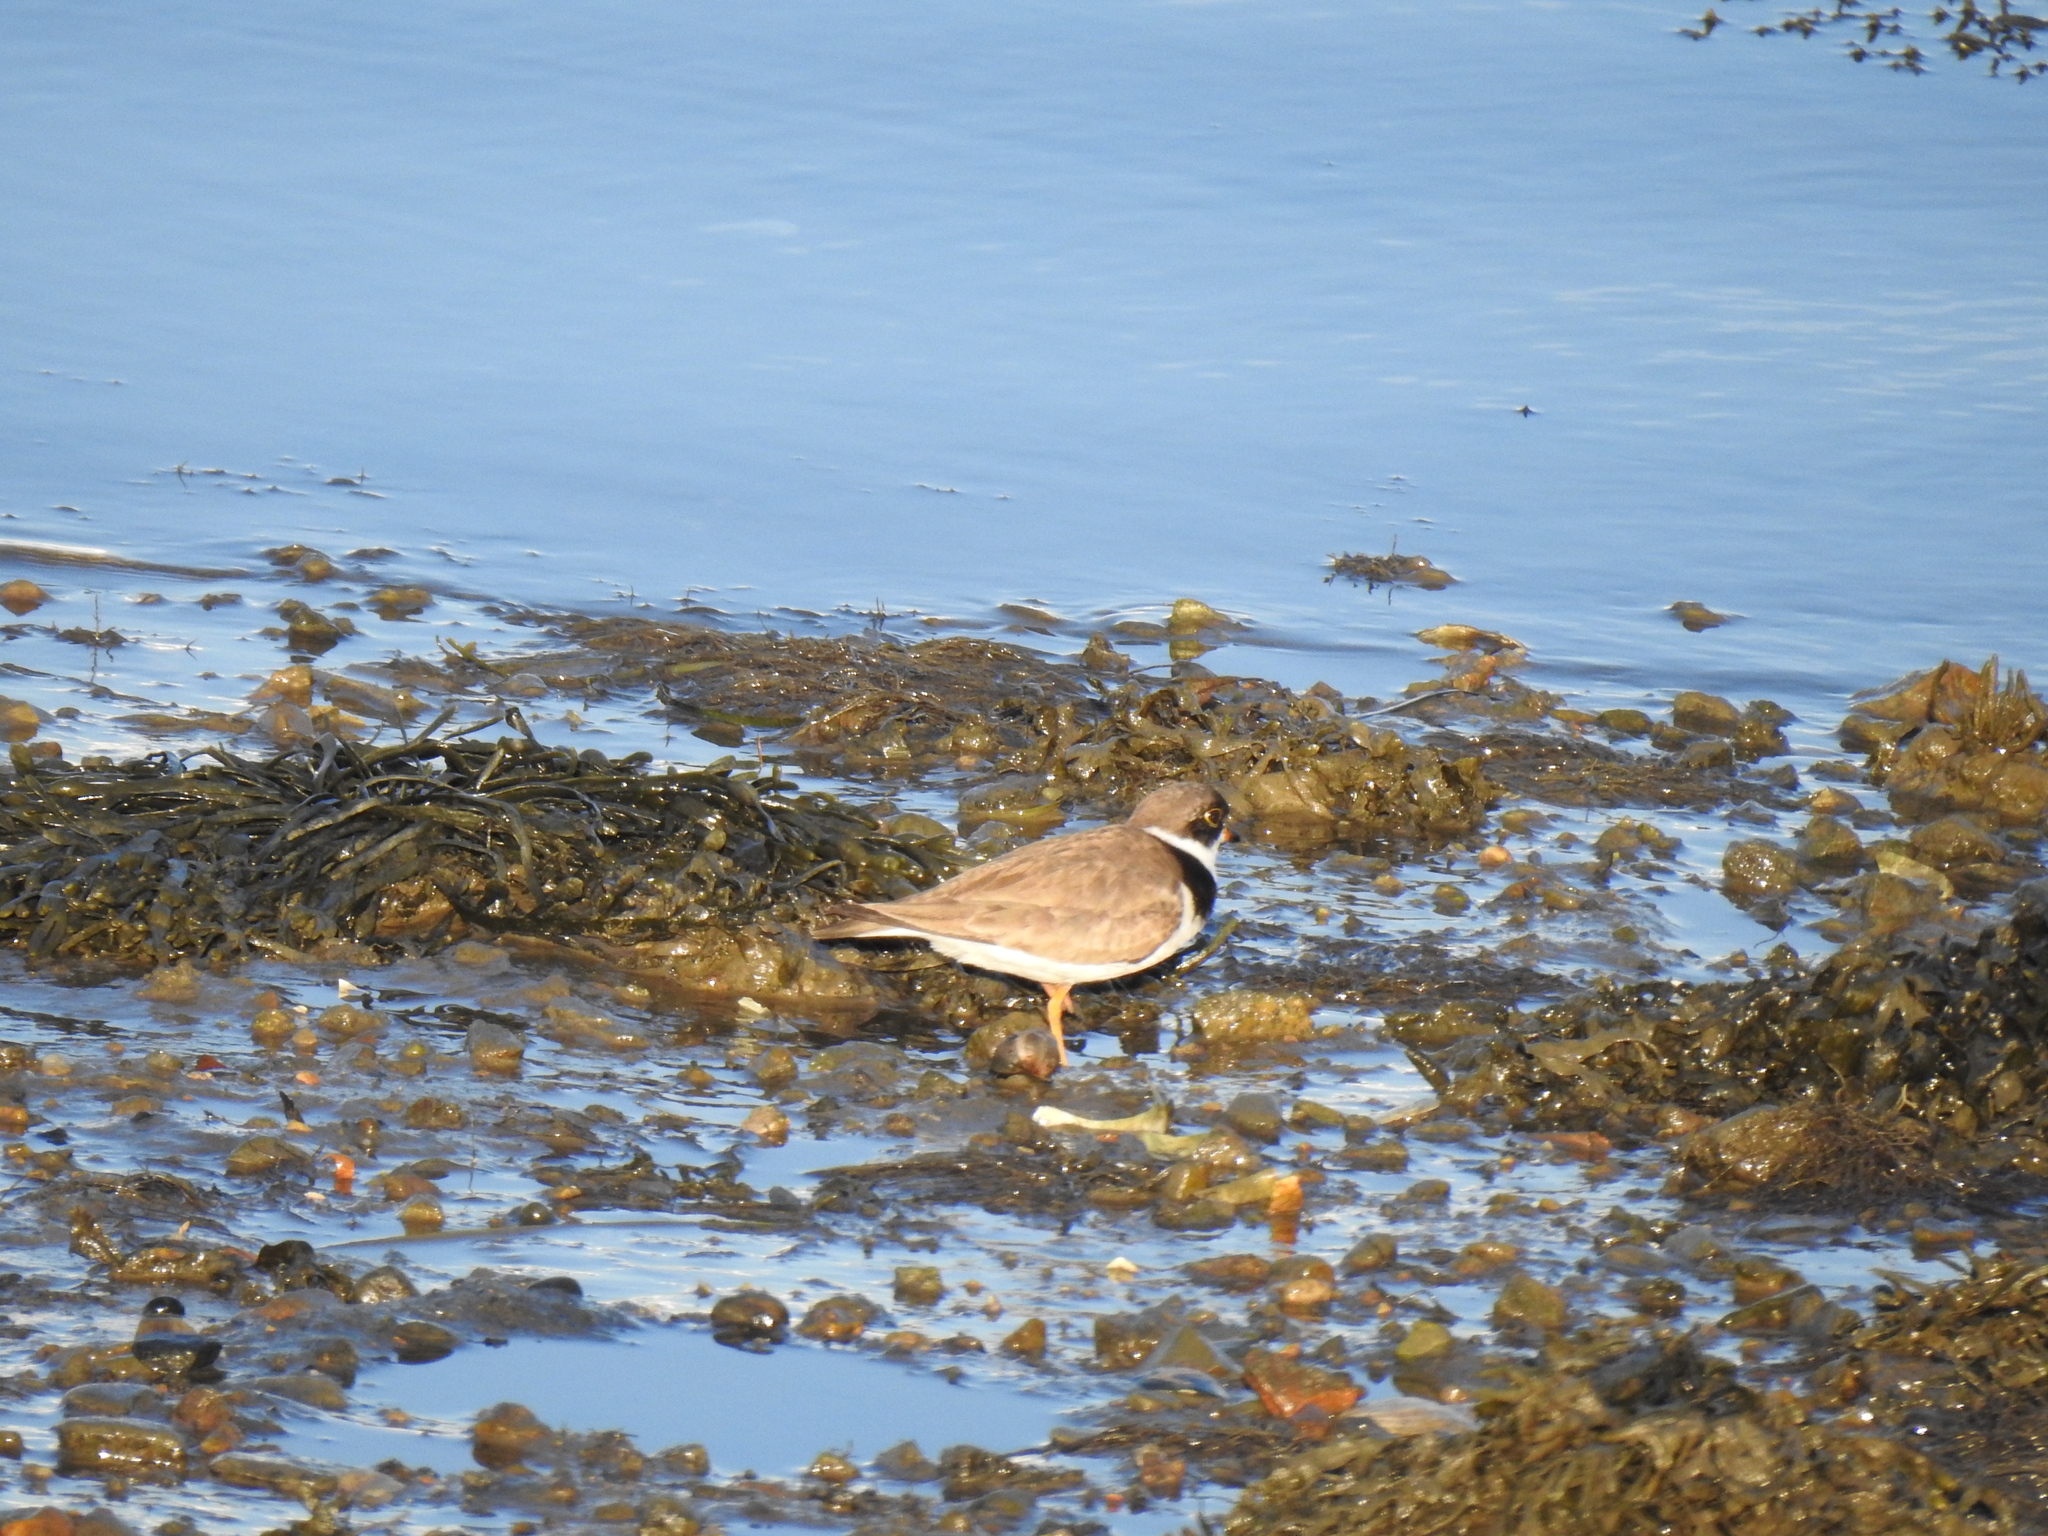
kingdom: Animalia
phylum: Chordata
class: Aves
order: Charadriiformes
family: Charadriidae
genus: Charadrius
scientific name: Charadrius semipalmatus
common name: Semipalmated plover
